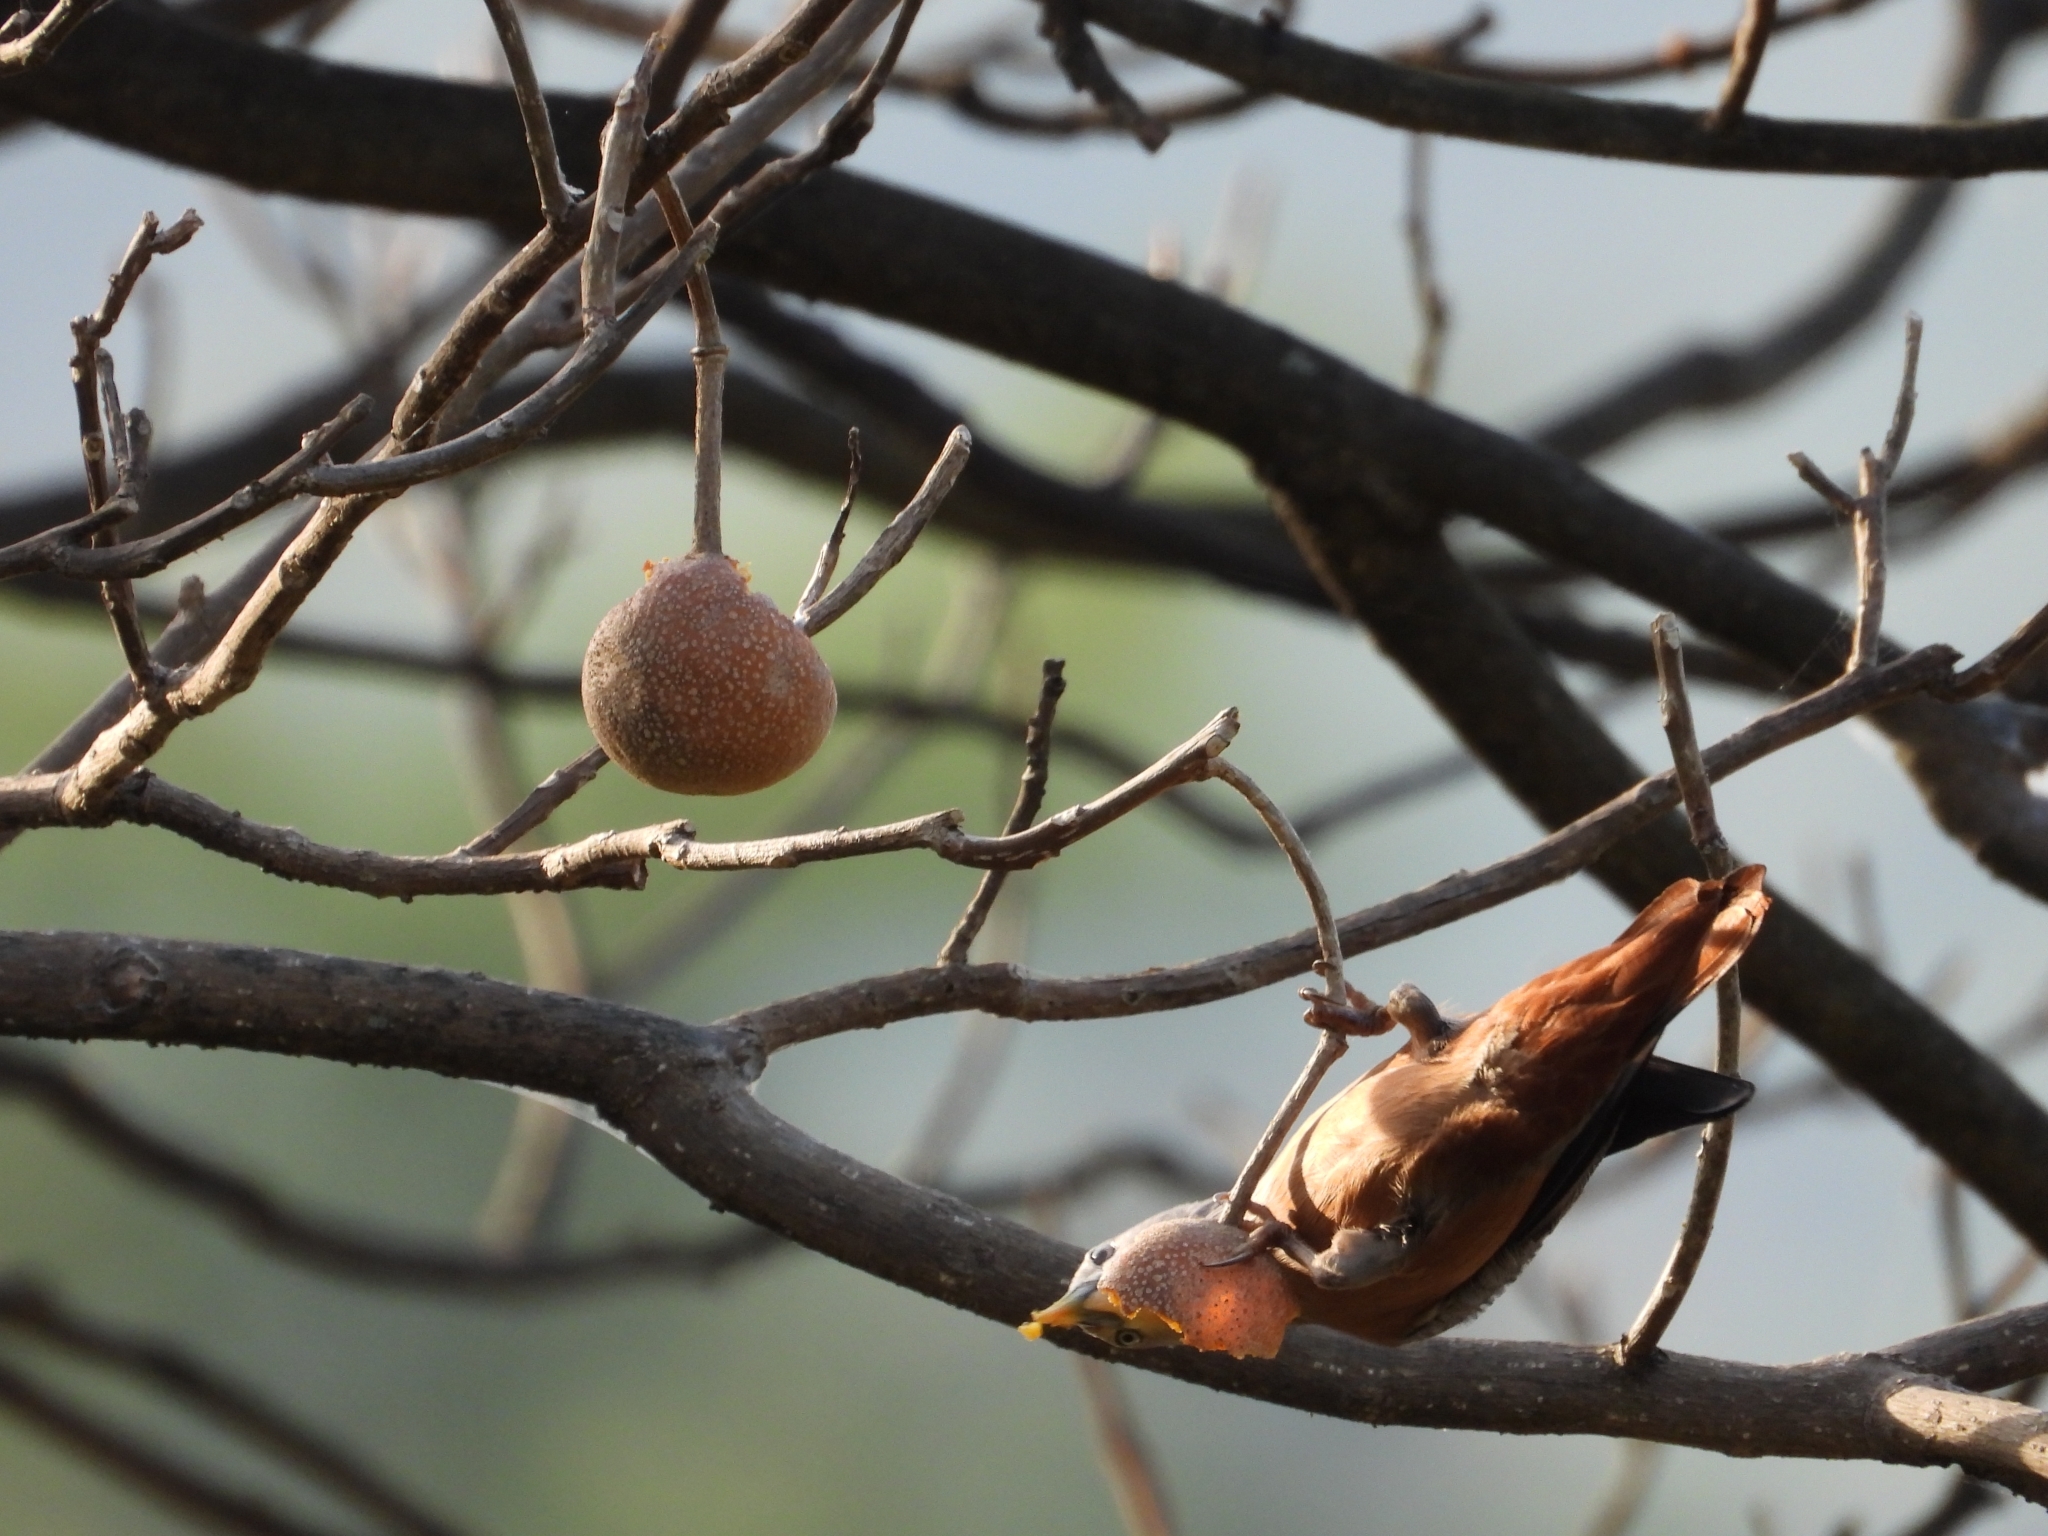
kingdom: Animalia
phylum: Chordata
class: Aves
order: Passeriformes
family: Sturnidae
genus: Sturnia
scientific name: Sturnia malabarica
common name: Chestnut-tailed starling
